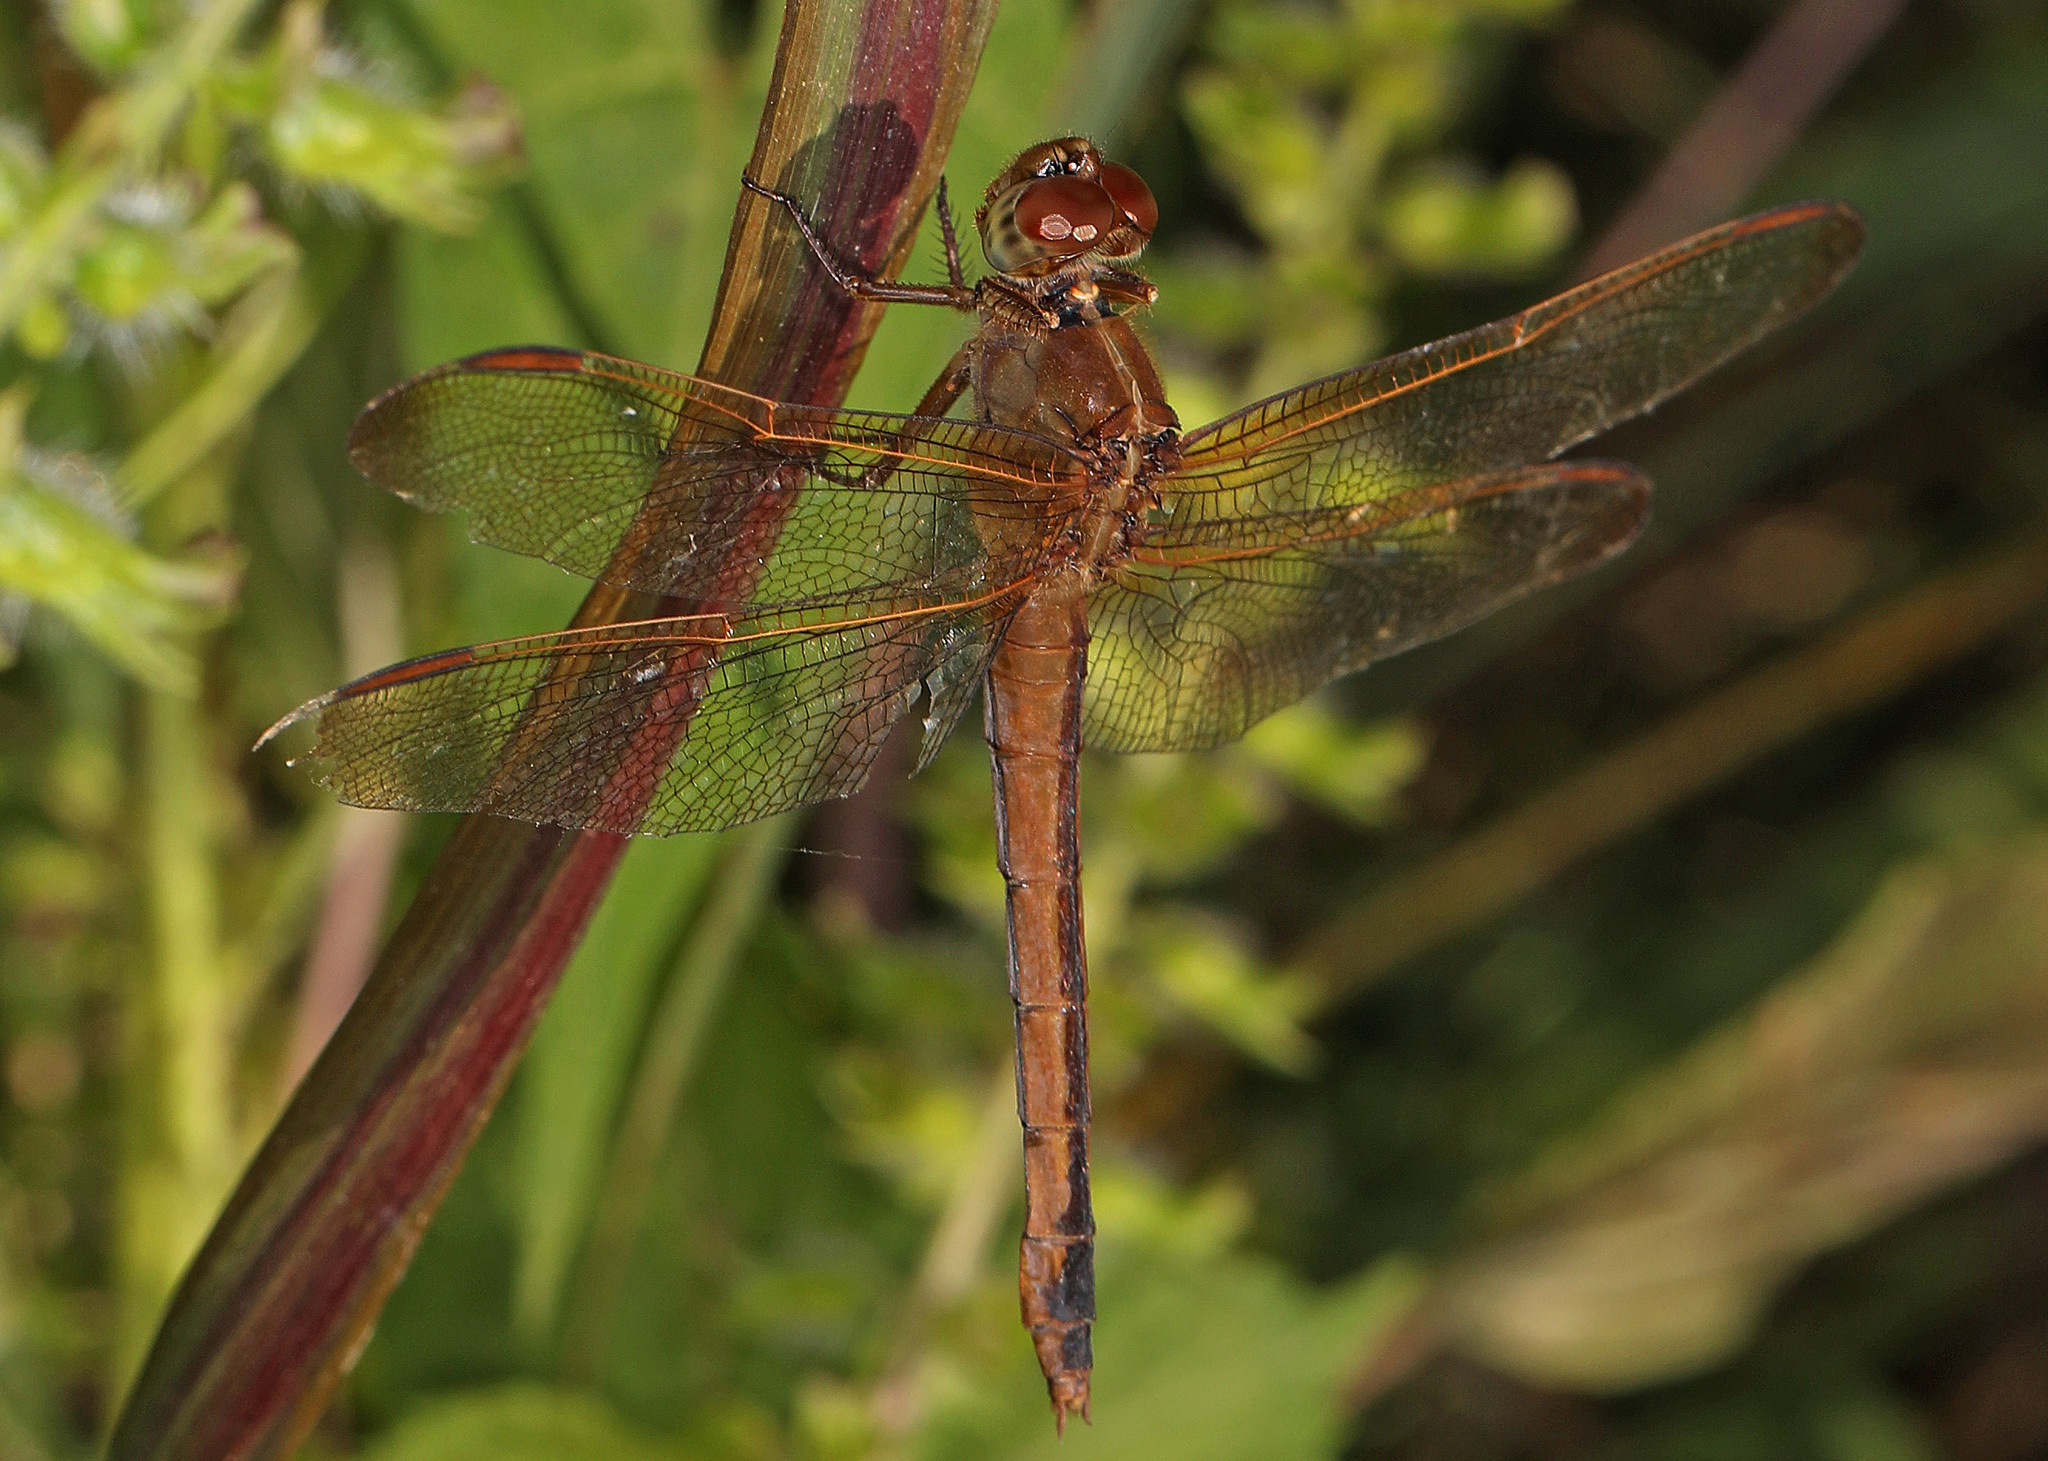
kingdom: Animalia
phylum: Arthropoda
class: Insecta
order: Odonata
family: Libellulidae
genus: Libellula
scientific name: Libellula needhami
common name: Needham's skimmer
